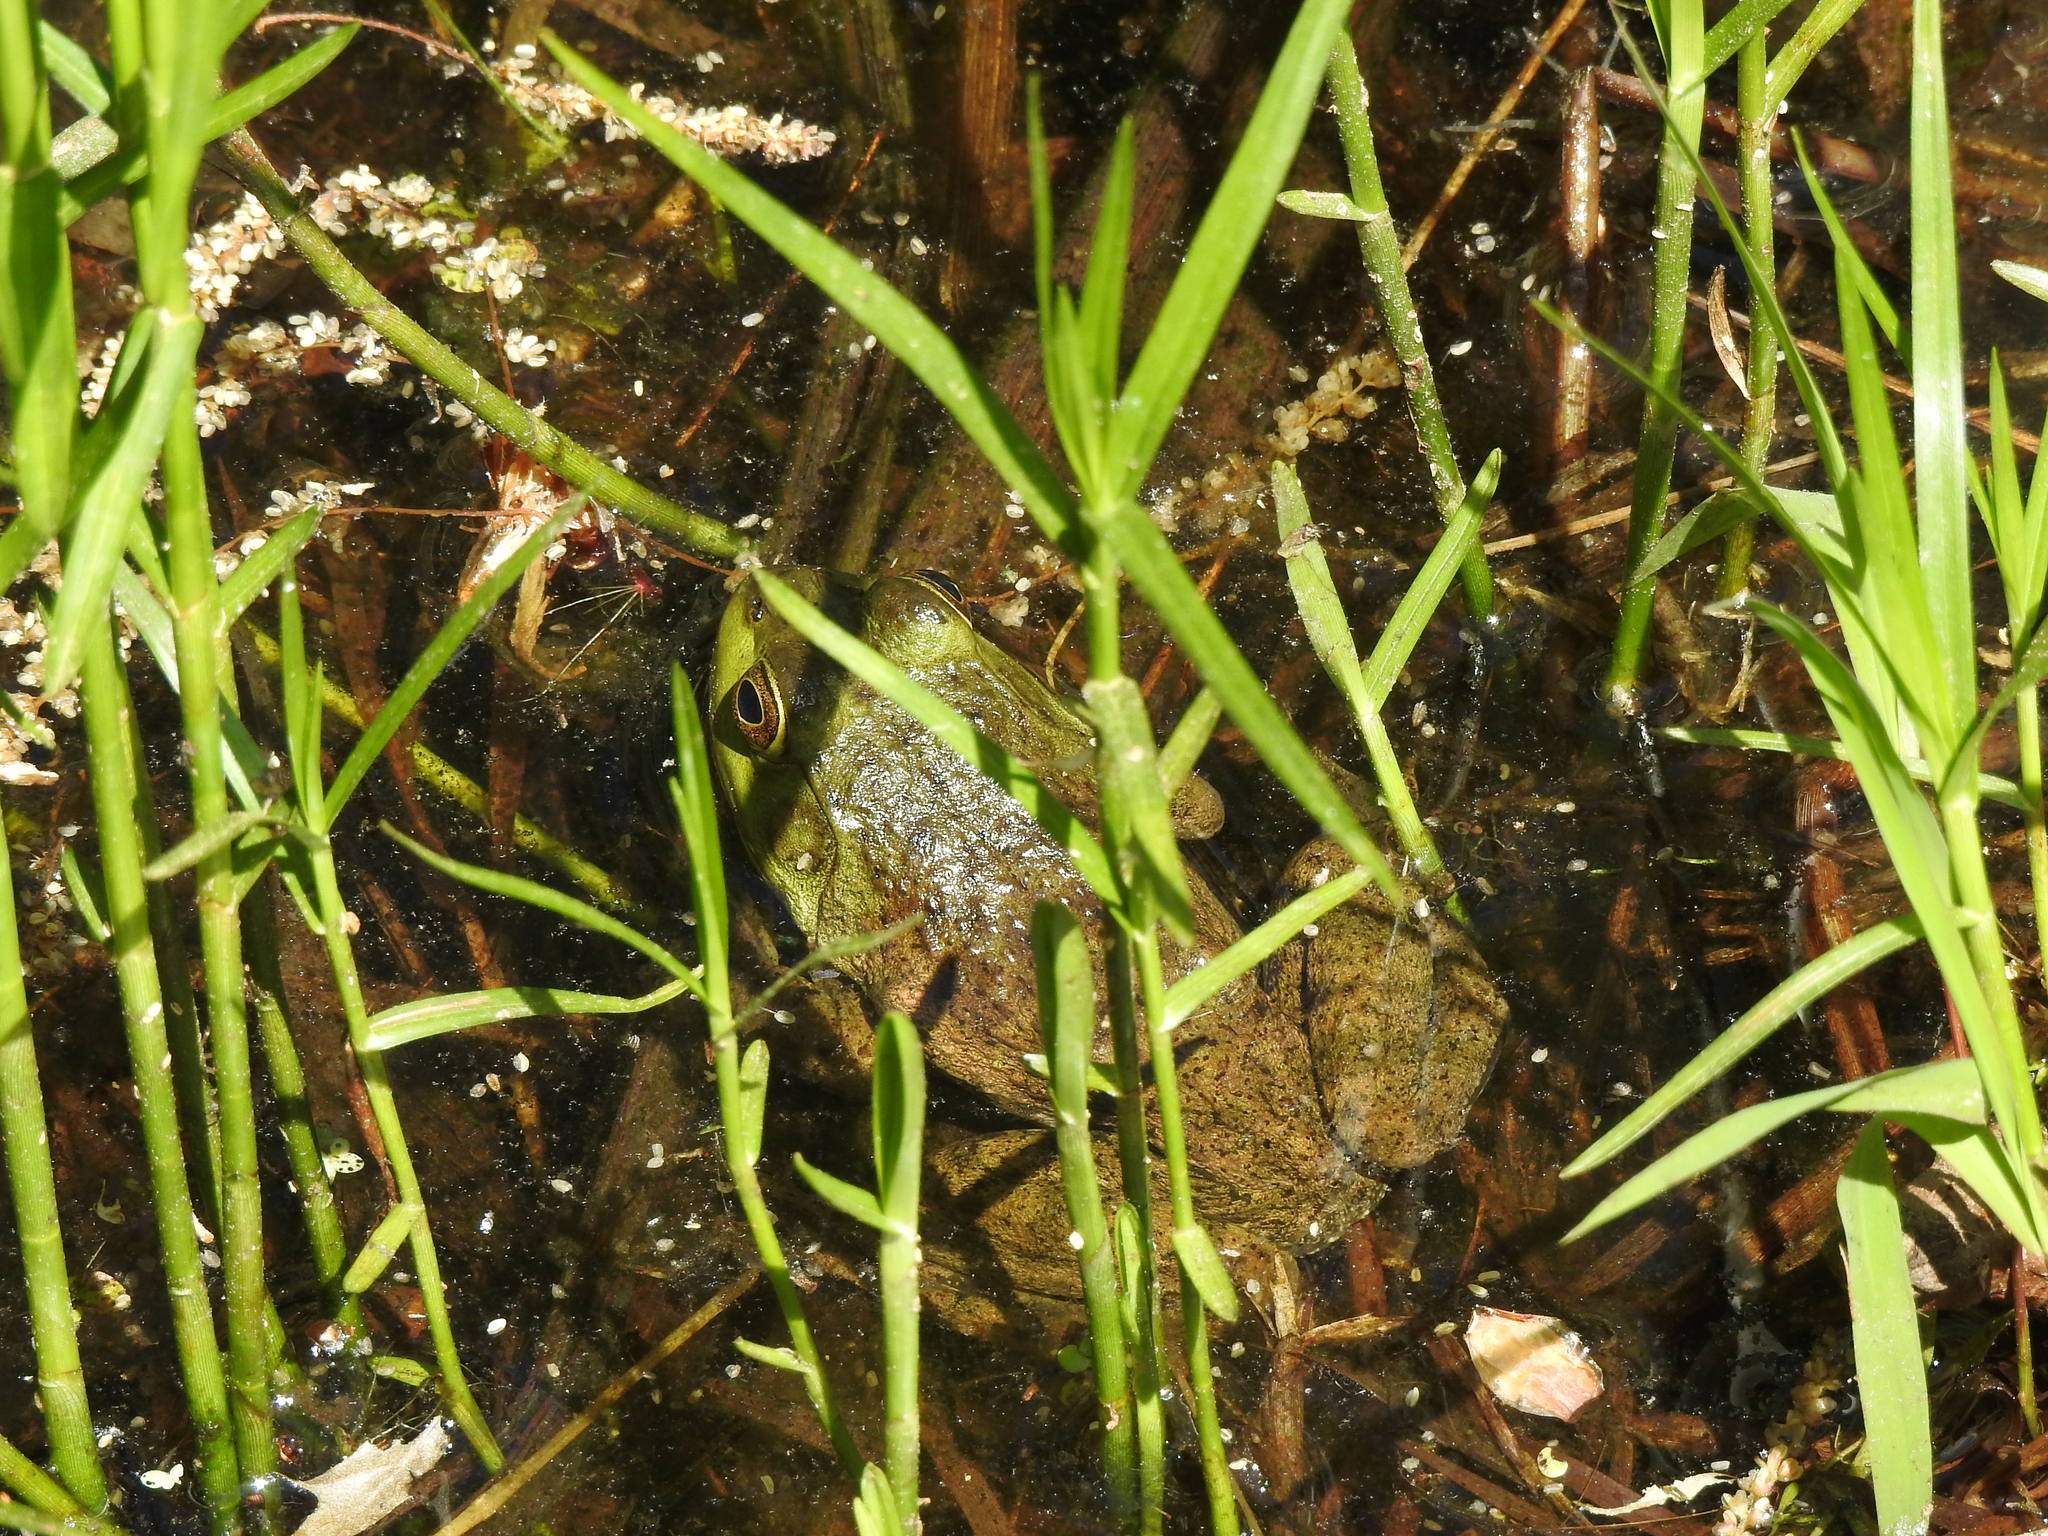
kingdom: Animalia
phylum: Chordata
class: Amphibia
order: Anura
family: Ranidae
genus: Lithobates
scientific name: Lithobates catesbeianus
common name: American bullfrog
